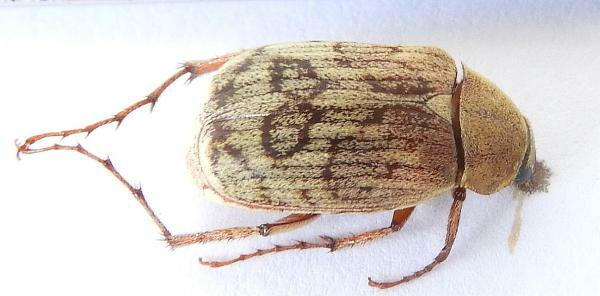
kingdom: Animalia
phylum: Arthropoda
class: Insecta
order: Coleoptera
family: Scarabaeidae
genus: Isonychus
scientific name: Isonychus arizonensis
